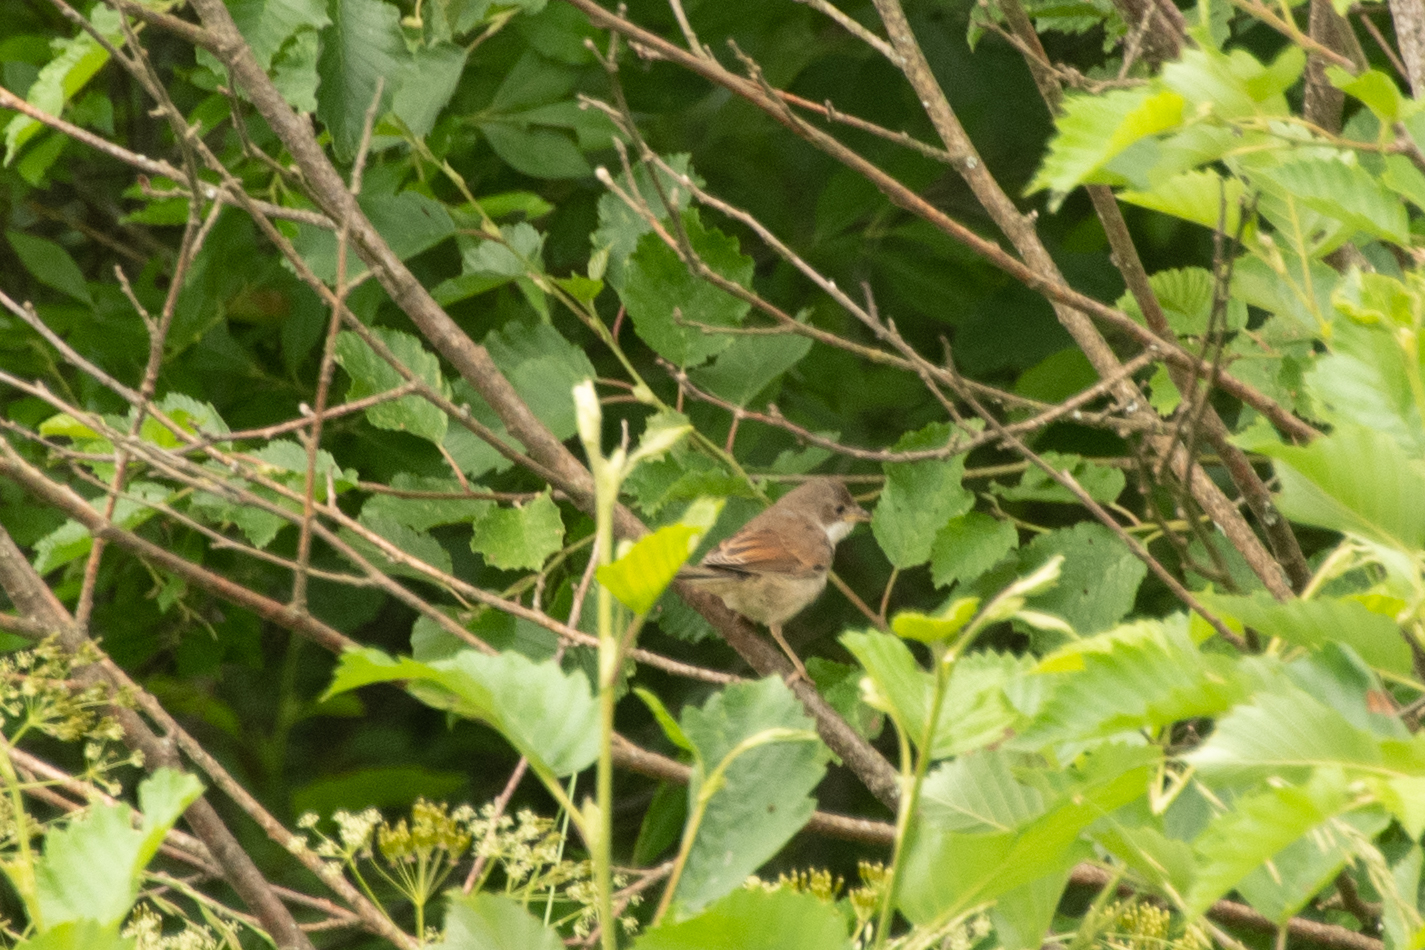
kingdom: Animalia
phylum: Chordata
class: Aves
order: Passeriformes
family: Sylviidae
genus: Sylvia
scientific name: Sylvia communis
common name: Common whitethroat
